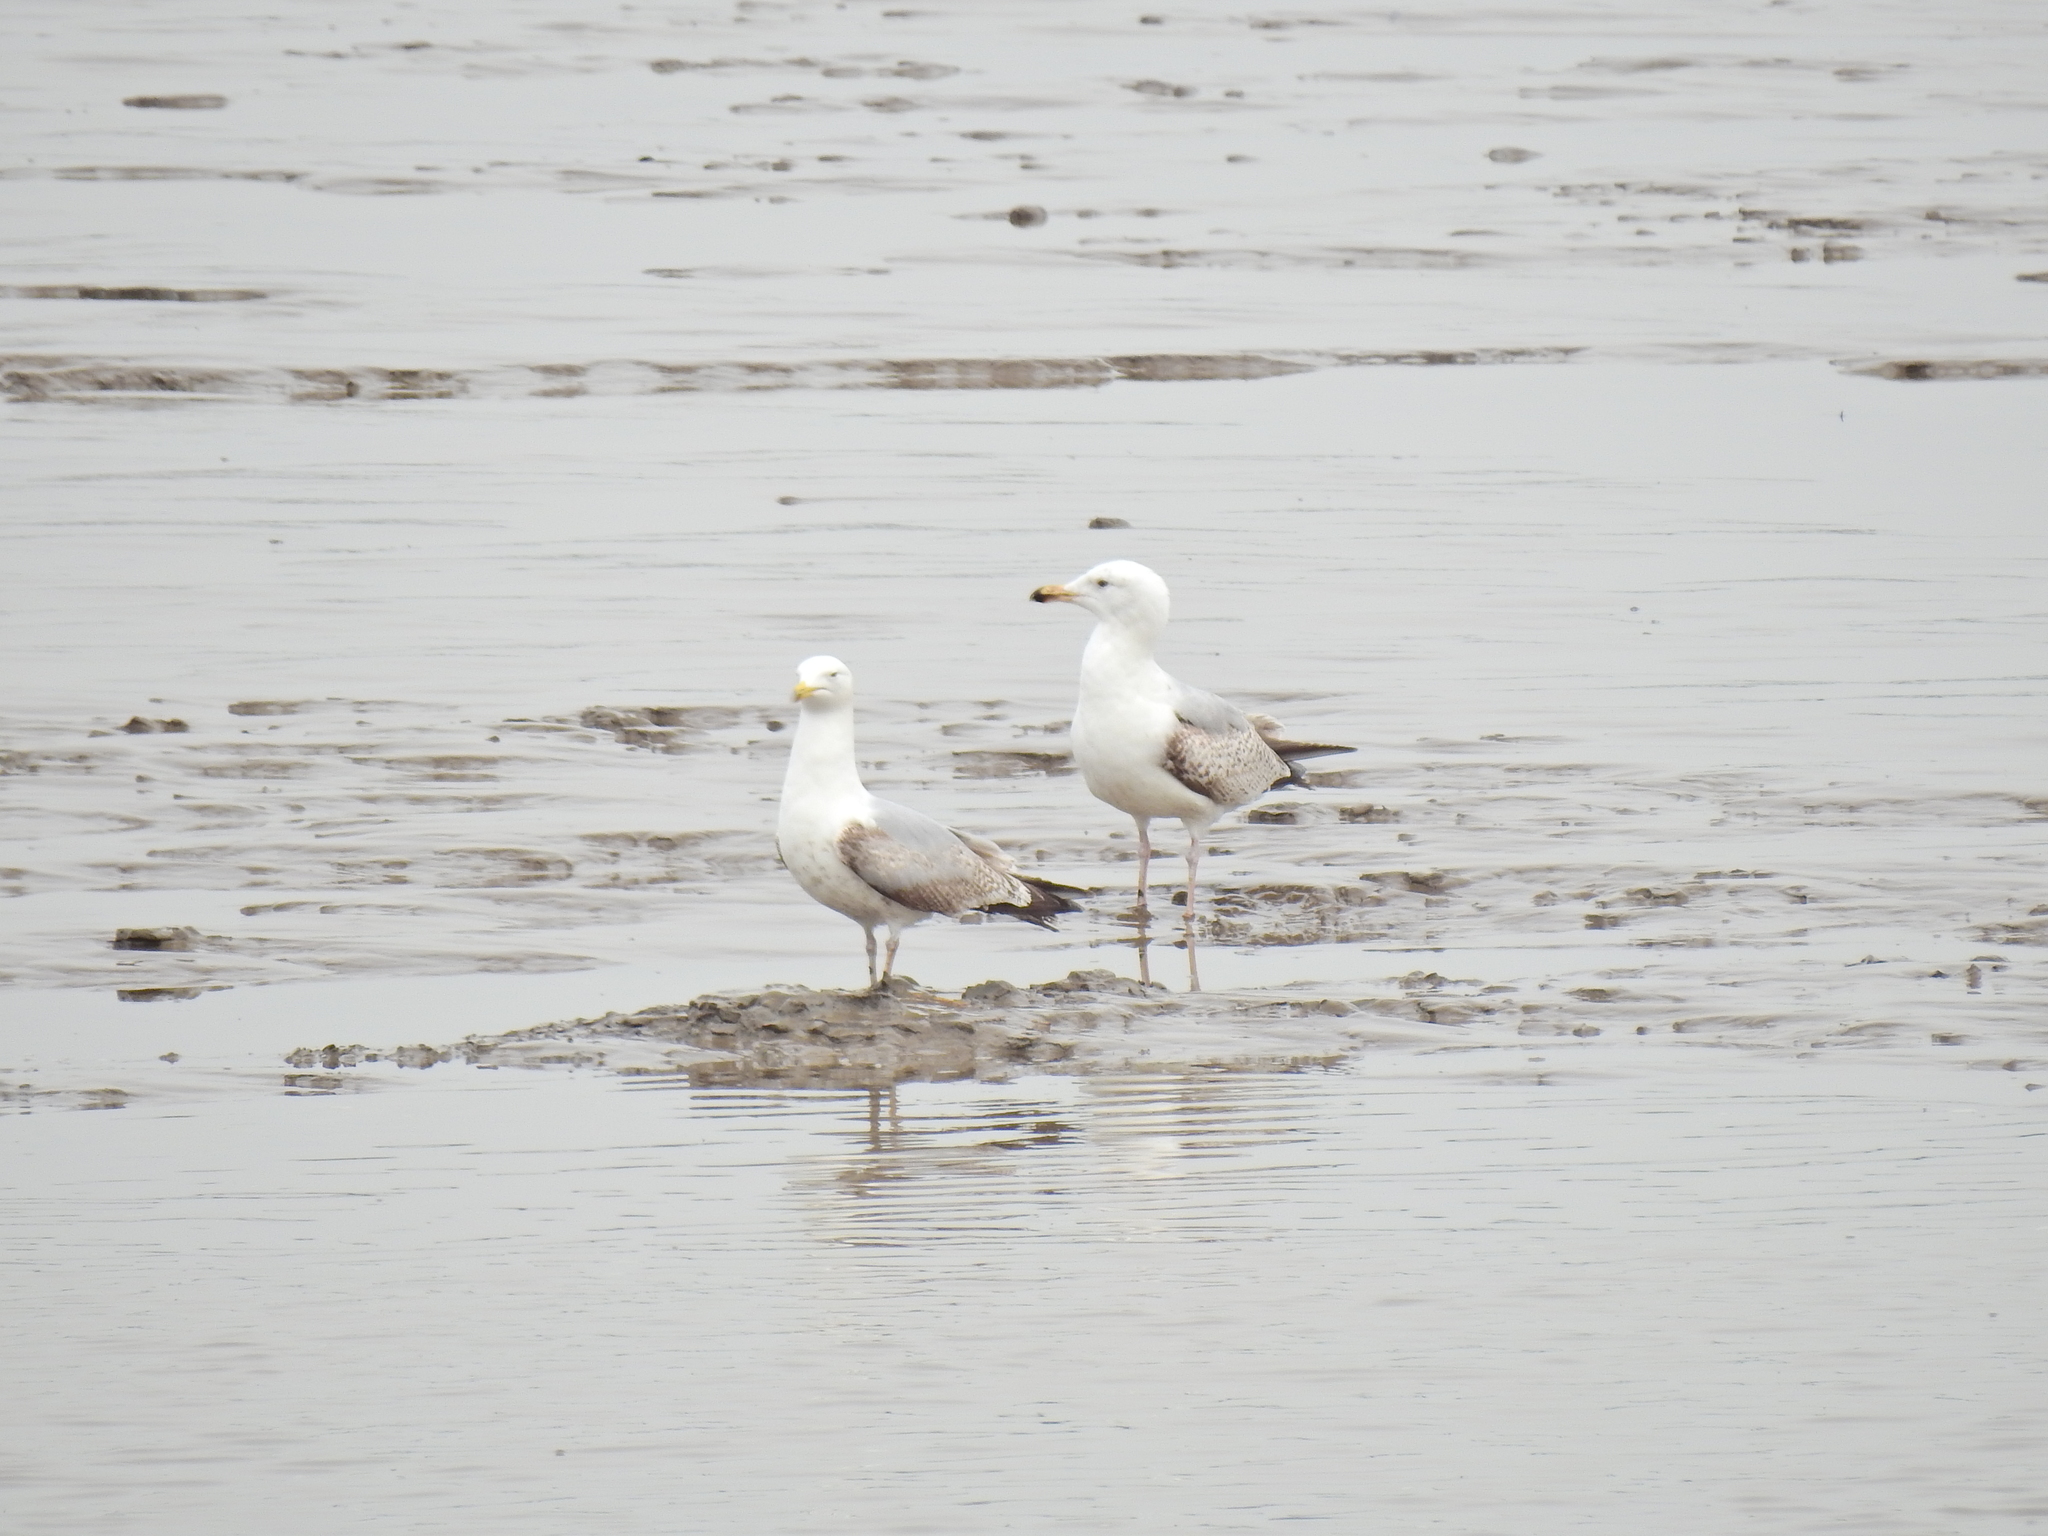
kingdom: Animalia
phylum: Chordata
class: Aves
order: Charadriiformes
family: Laridae
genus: Larus
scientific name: Larus argentatus
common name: Herring gull
